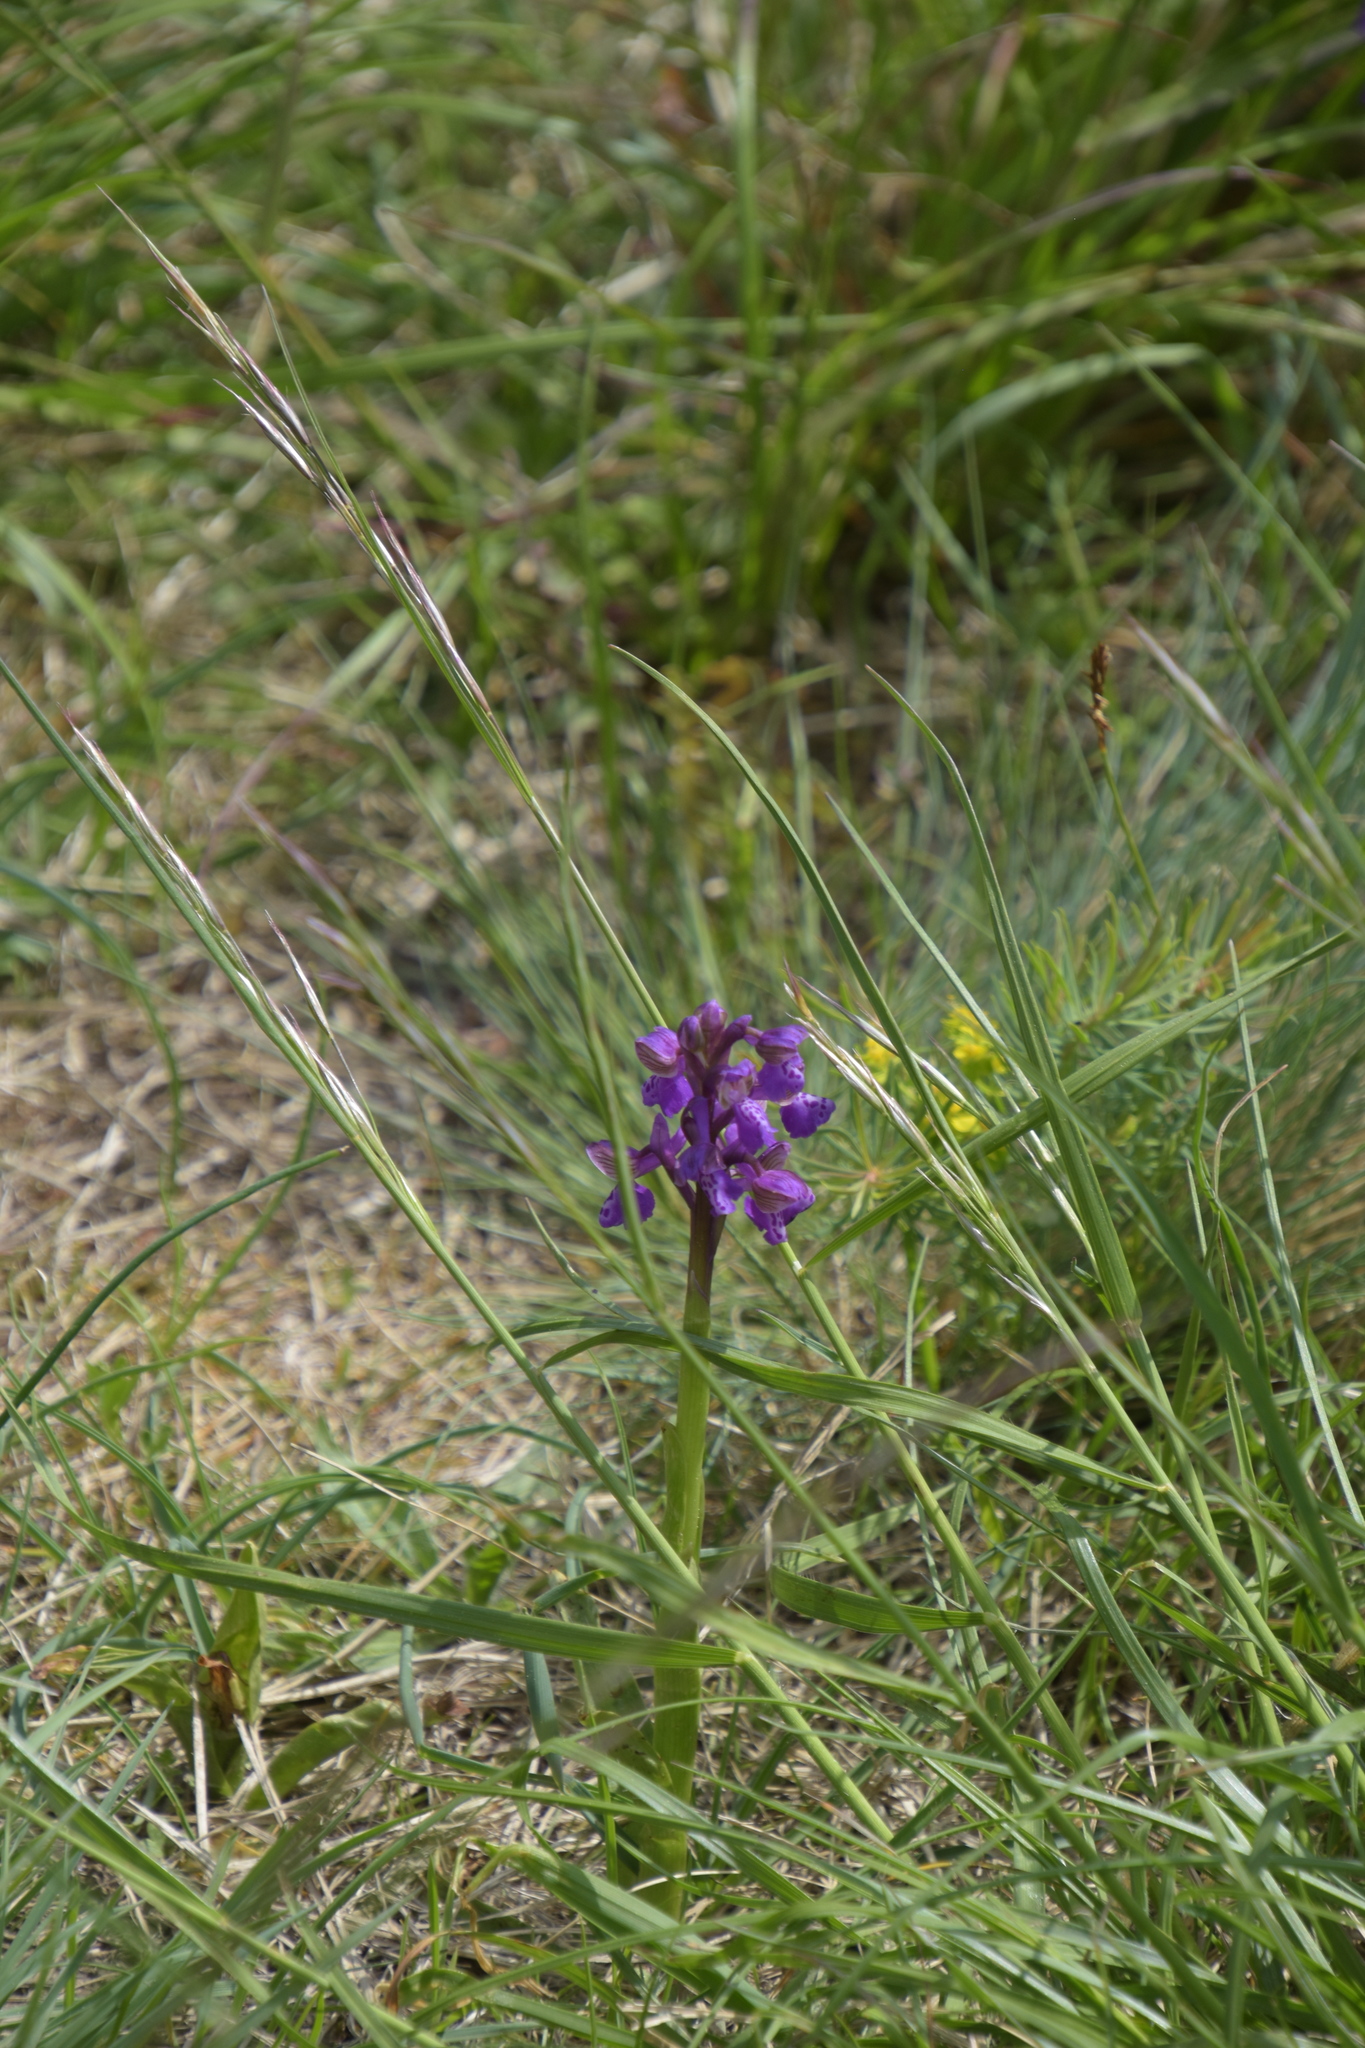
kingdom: Plantae
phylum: Tracheophyta
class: Liliopsida
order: Asparagales
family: Orchidaceae
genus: Anacamptis
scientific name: Anacamptis morio
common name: Green-winged orchid
